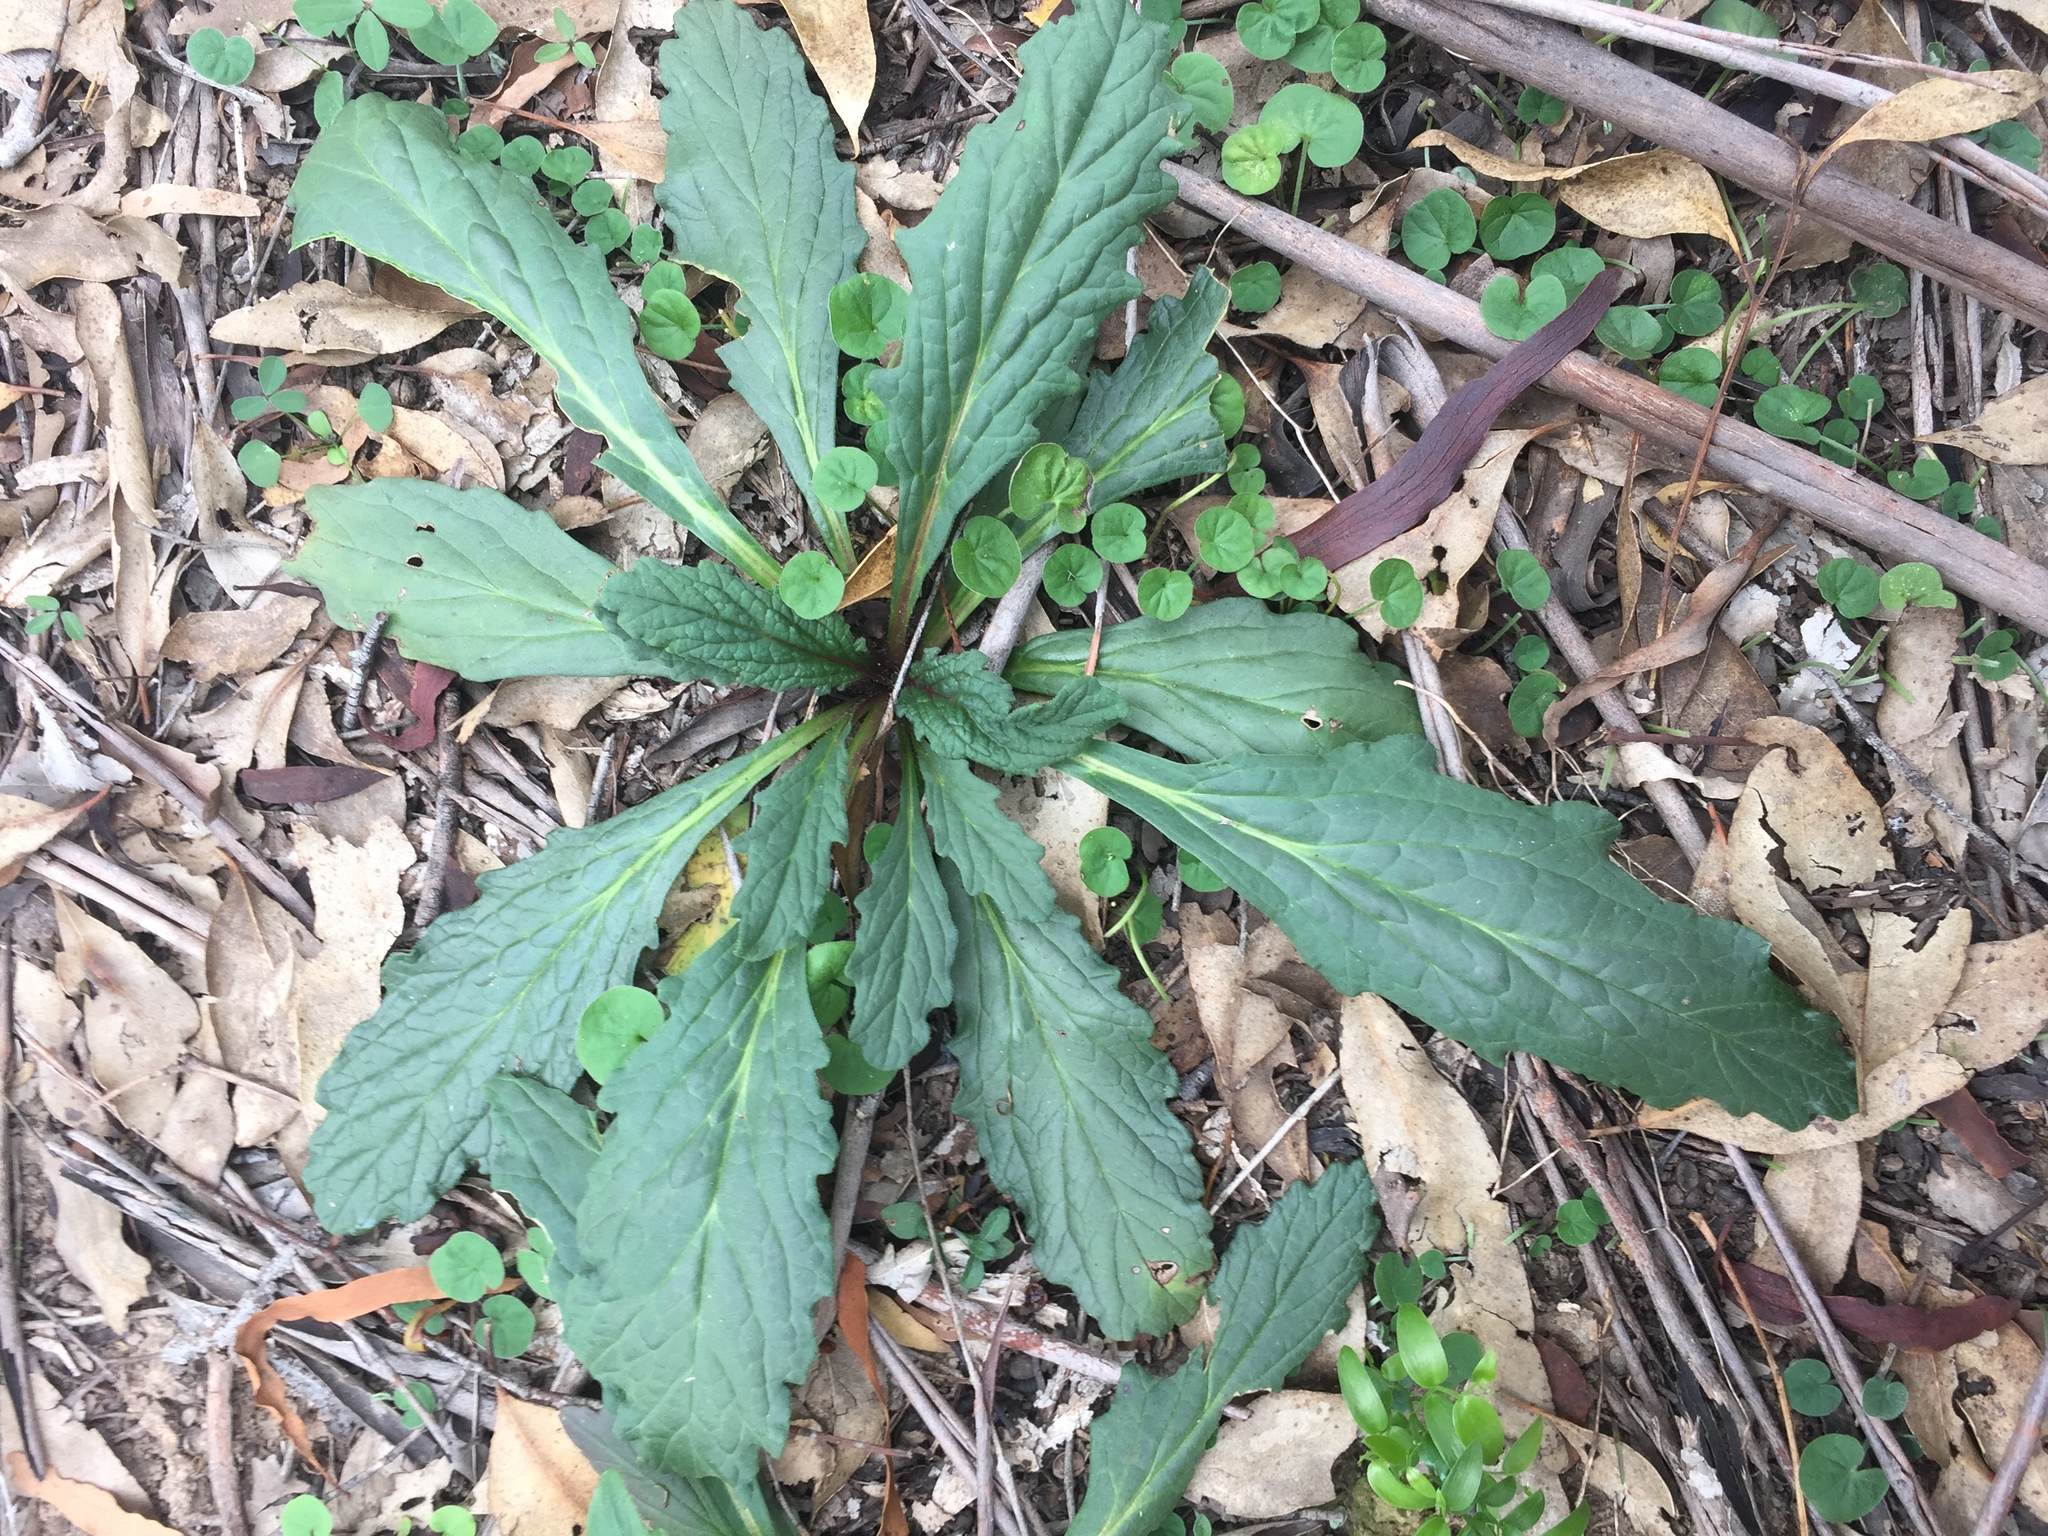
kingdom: Plantae
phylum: Tracheophyta
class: Magnoliopsida
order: Lamiales
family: Lamiaceae
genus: Ajuga
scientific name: Ajuga australis
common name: Australian bugle
